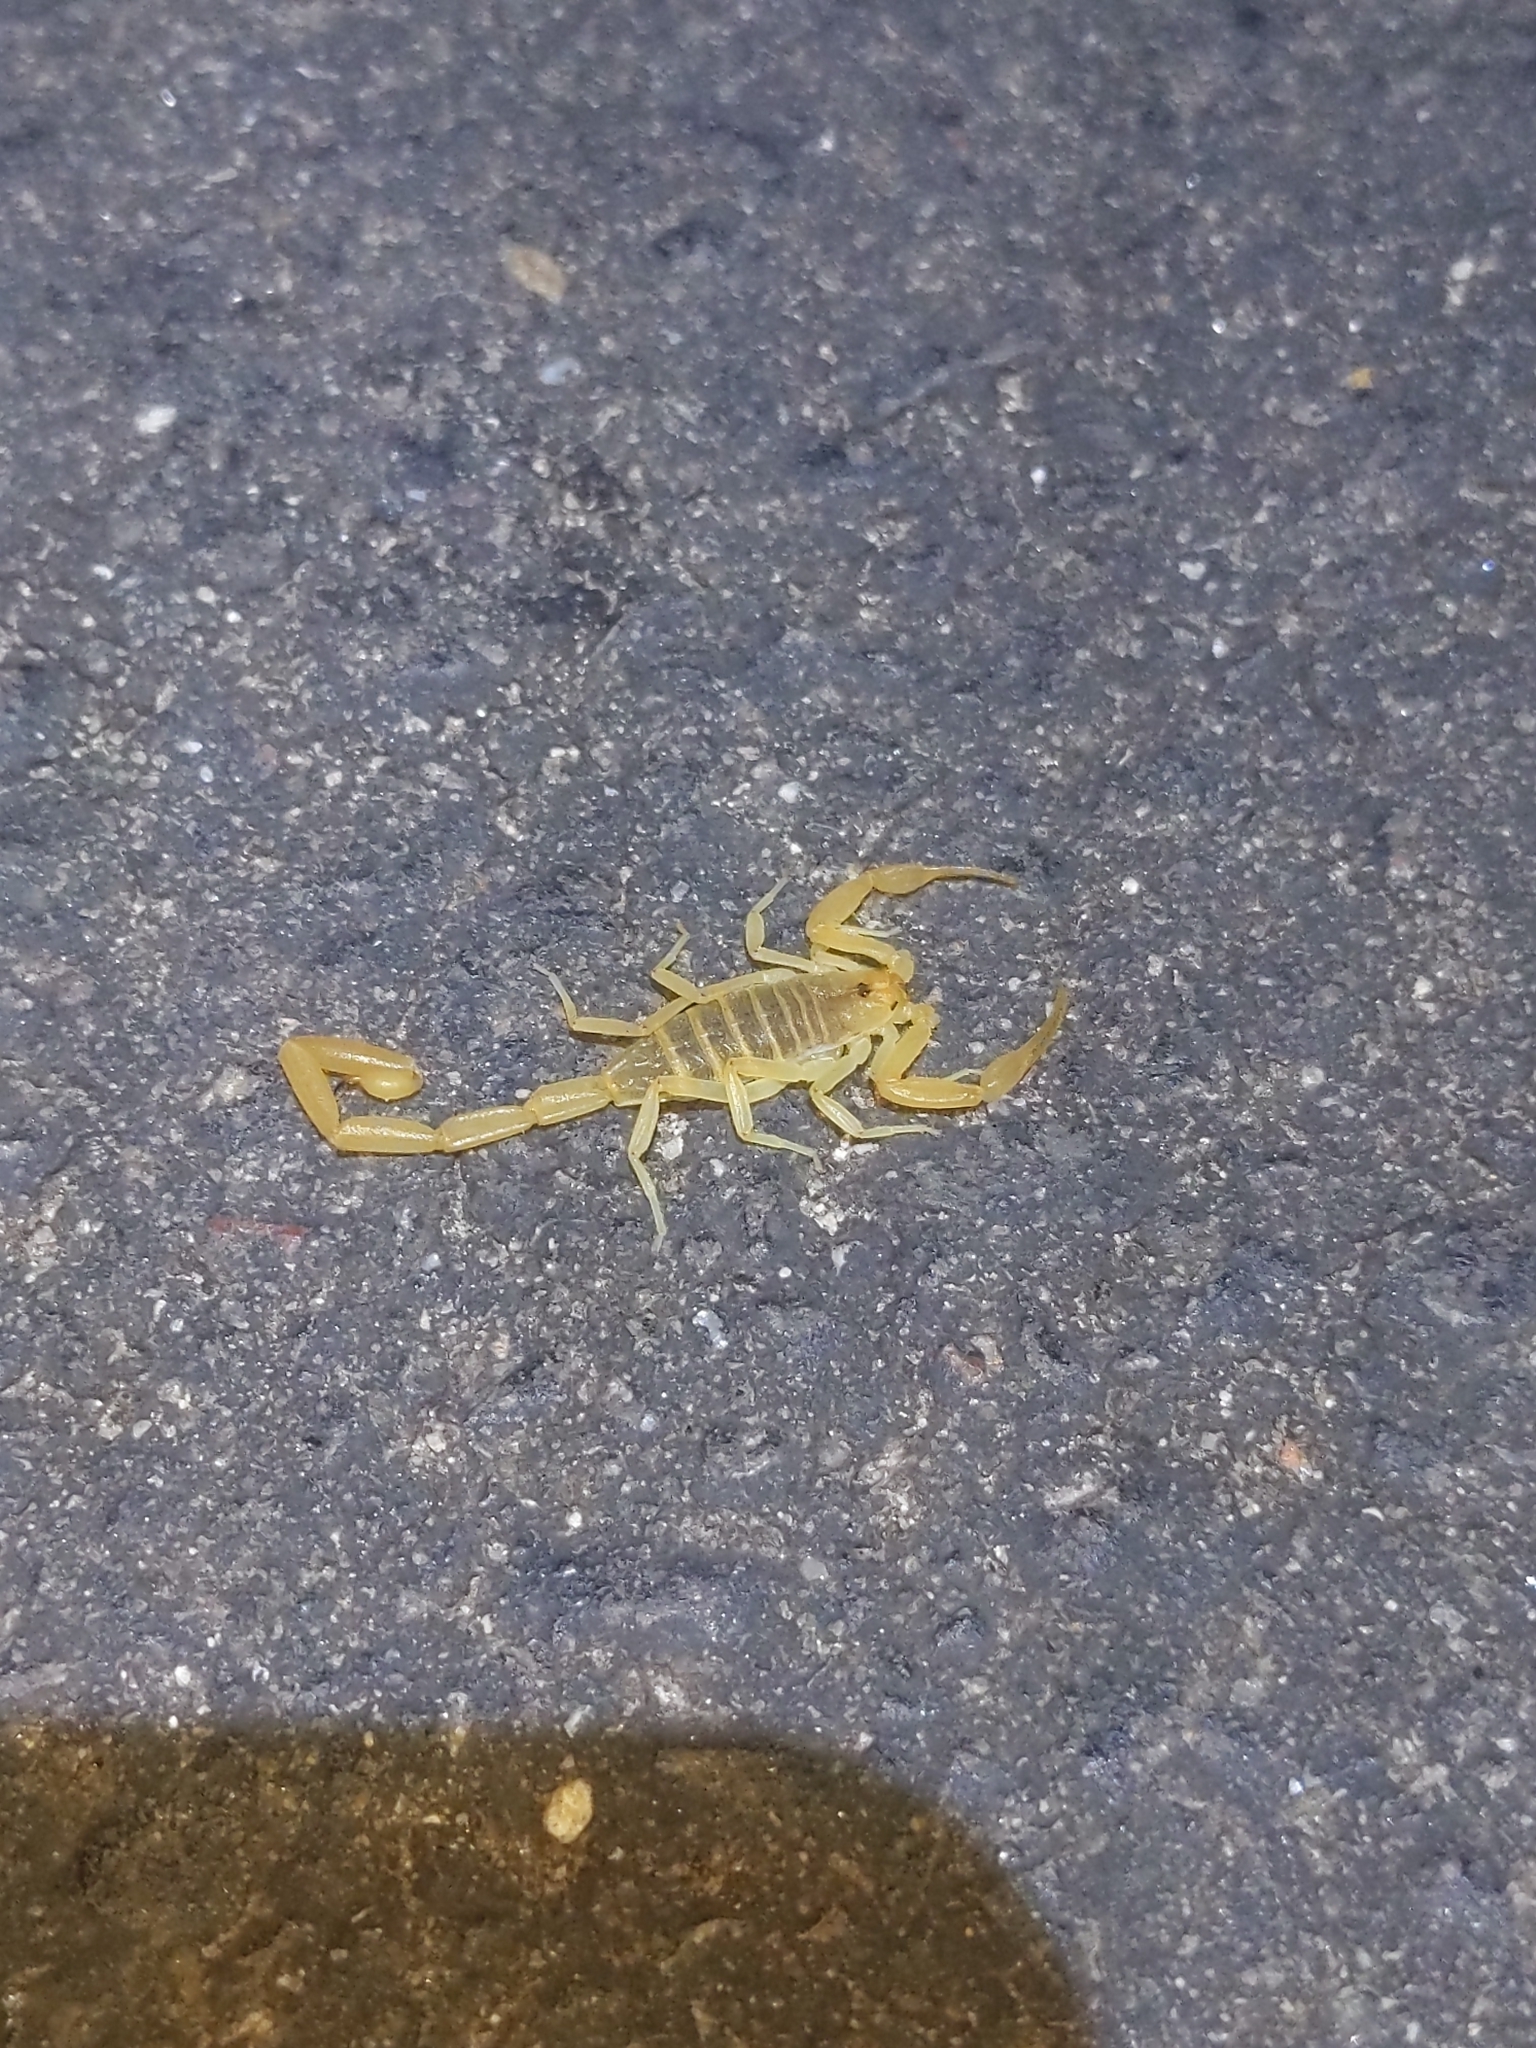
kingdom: Animalia
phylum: Arthropoda
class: Arachnida
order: Scorpiones
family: Buthidae
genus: Centruroides
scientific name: Centruroides sculpturatus
